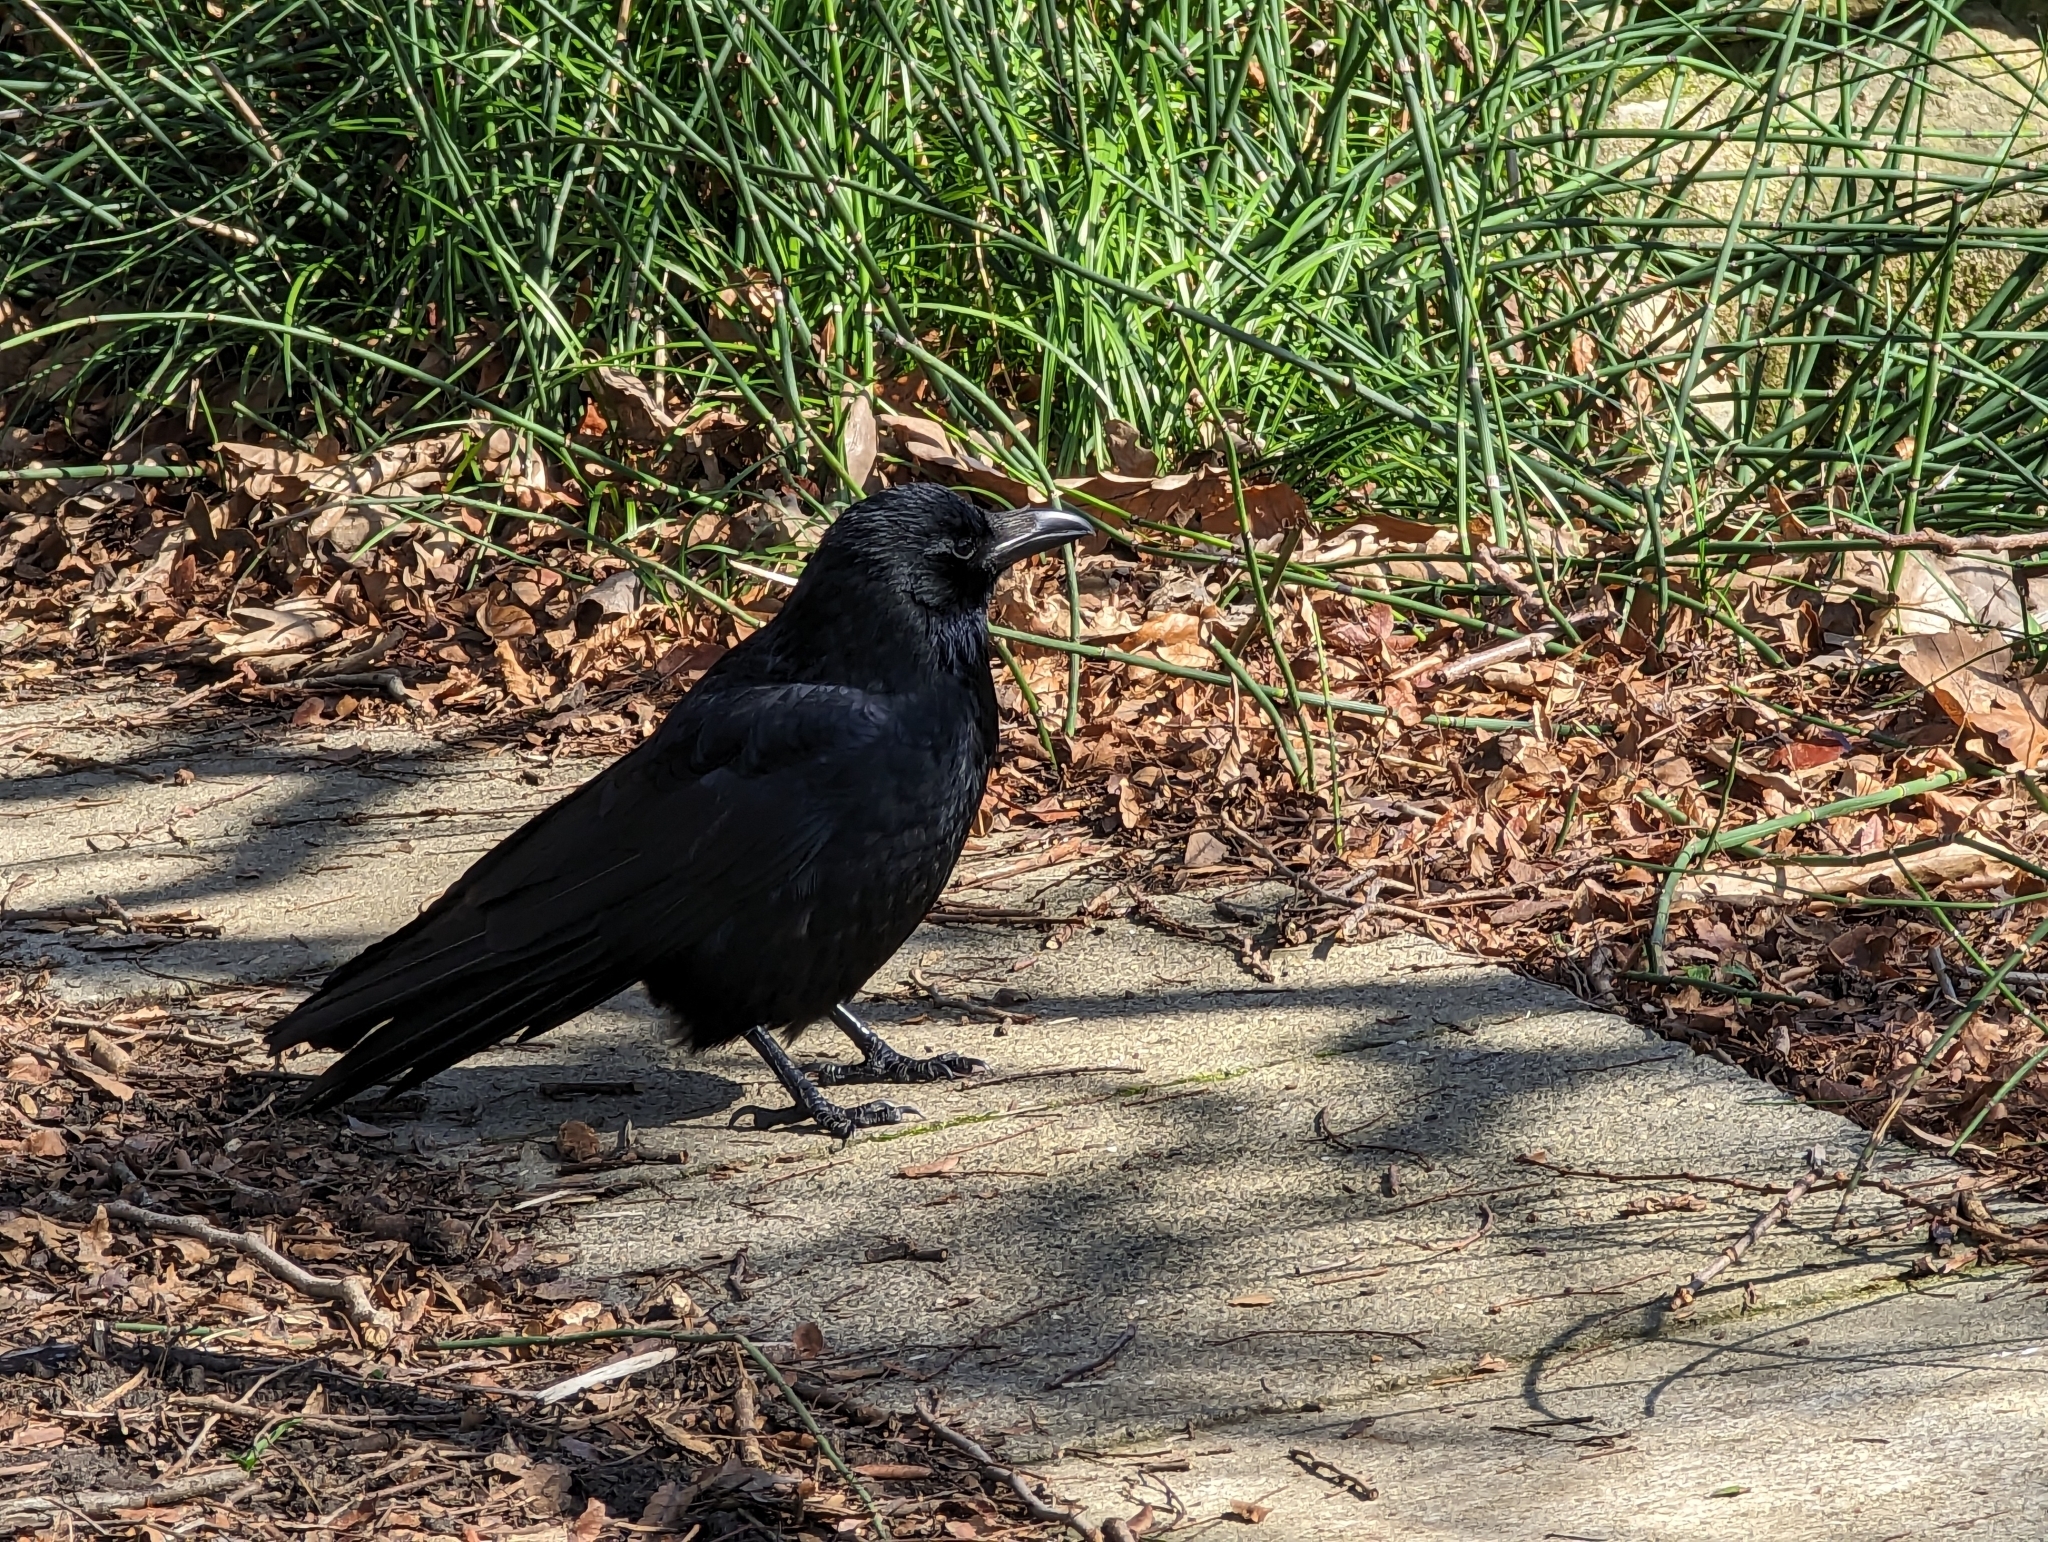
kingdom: Animalia
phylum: Chordata
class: Aves
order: Passeriformes
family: Corvidae
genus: Corvus
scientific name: Corvus corone
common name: Carrion crow
